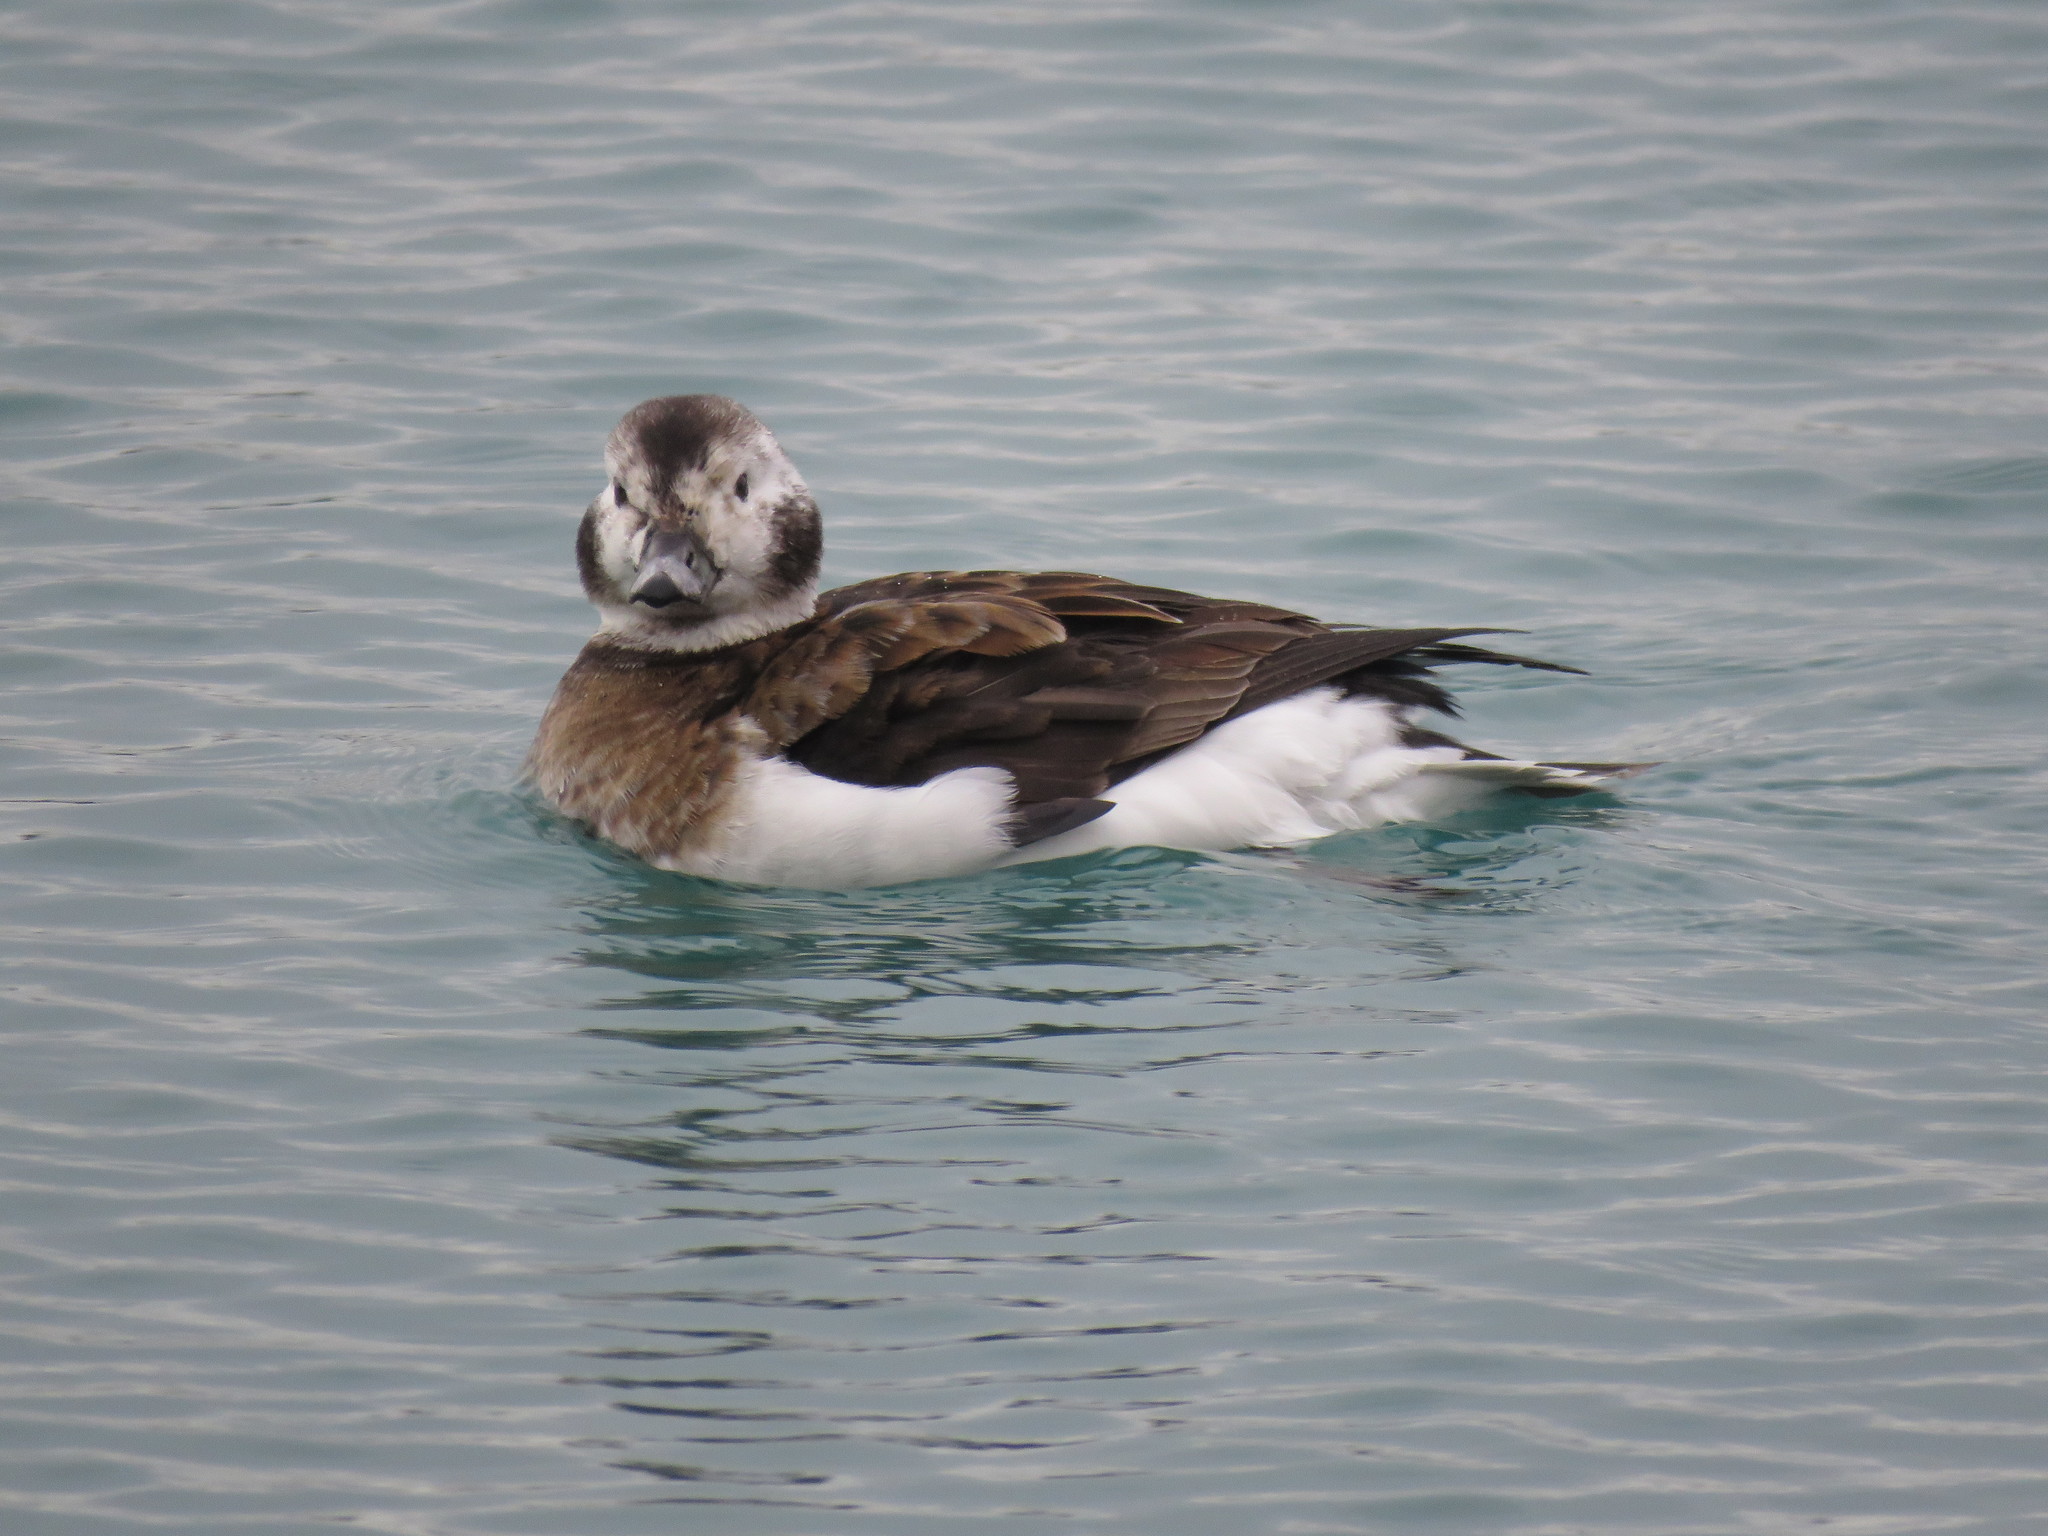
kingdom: Animalia
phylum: Chordata
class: Aves
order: Anseriformes
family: Anatidae
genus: Clangula
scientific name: Clangula hyemalis
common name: Long-tailed duck
